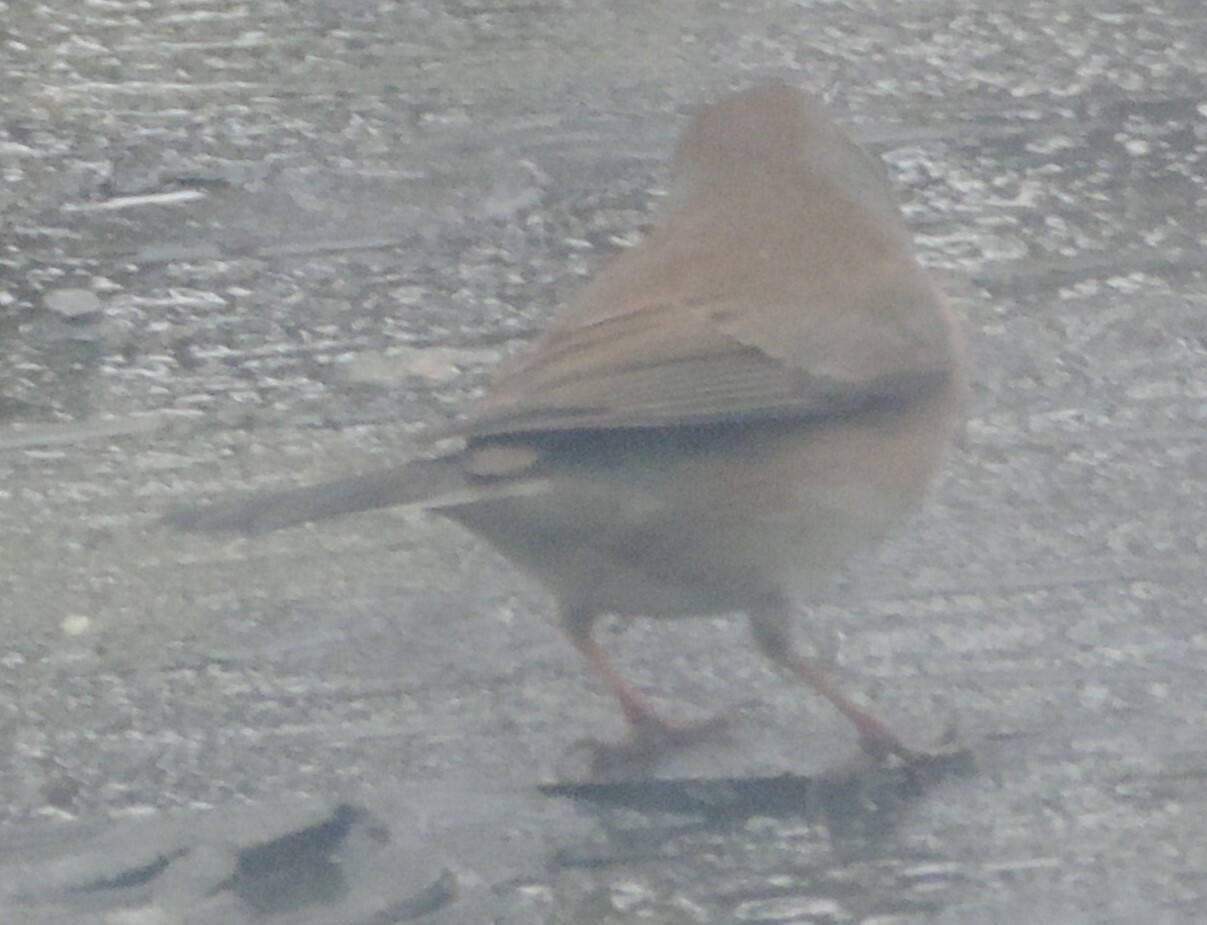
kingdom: Animalia
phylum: Chordata
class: Aves
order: Passeriformes
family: Passerellidae
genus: Junco
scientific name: Junco hyemalis
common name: Dark-eyed junco
